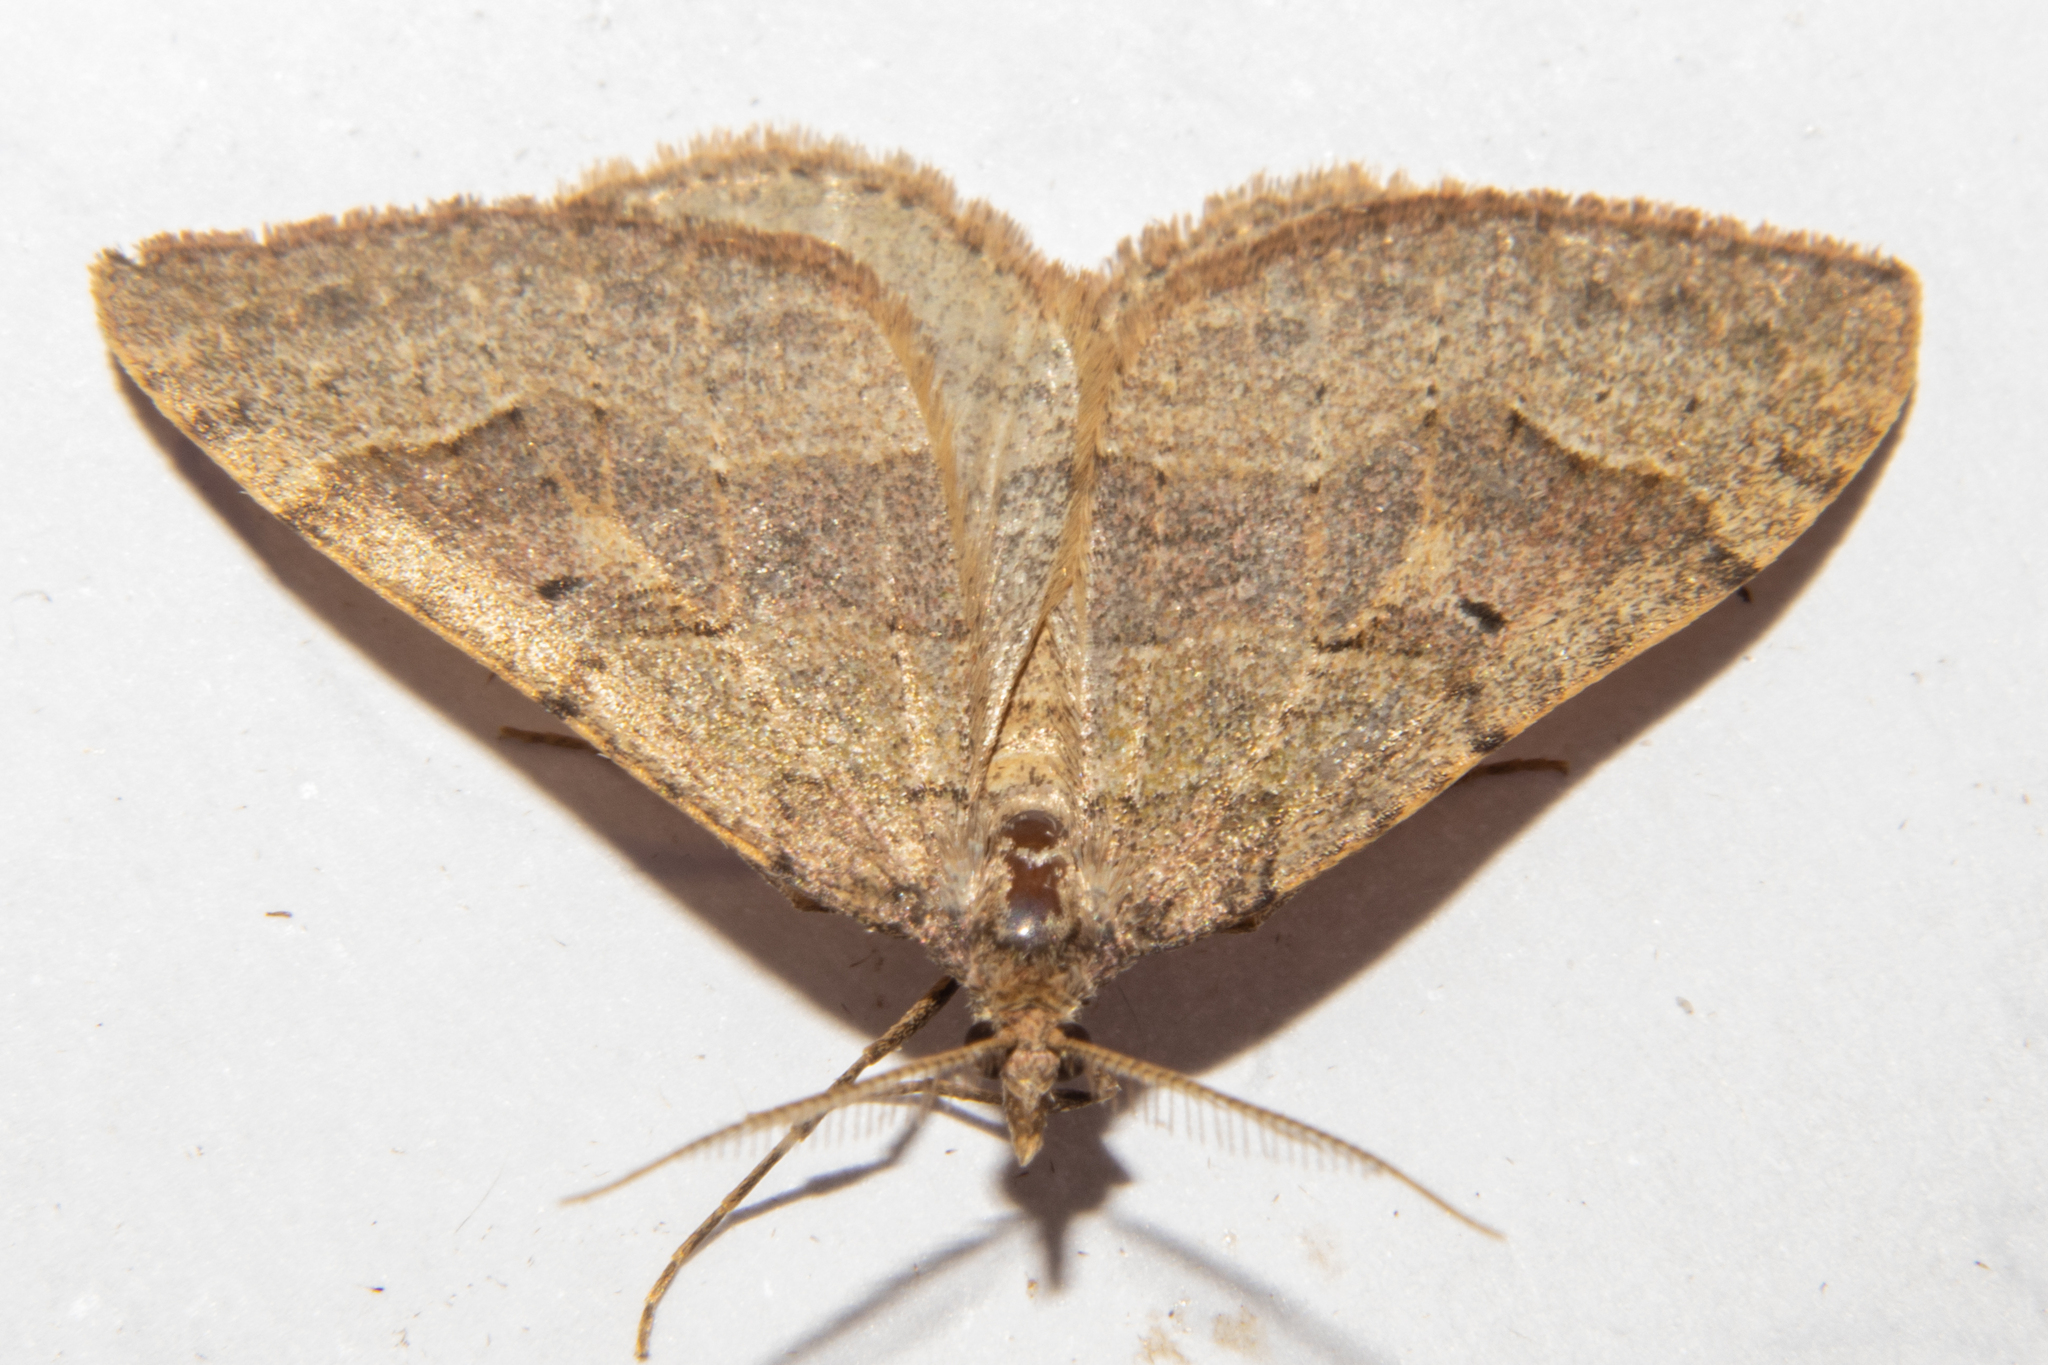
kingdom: Animalia
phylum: Arthropoda
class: Insecta
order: Lepidoptera
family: Geometridae
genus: Epyaxa
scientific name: Epyaxa rosearia
